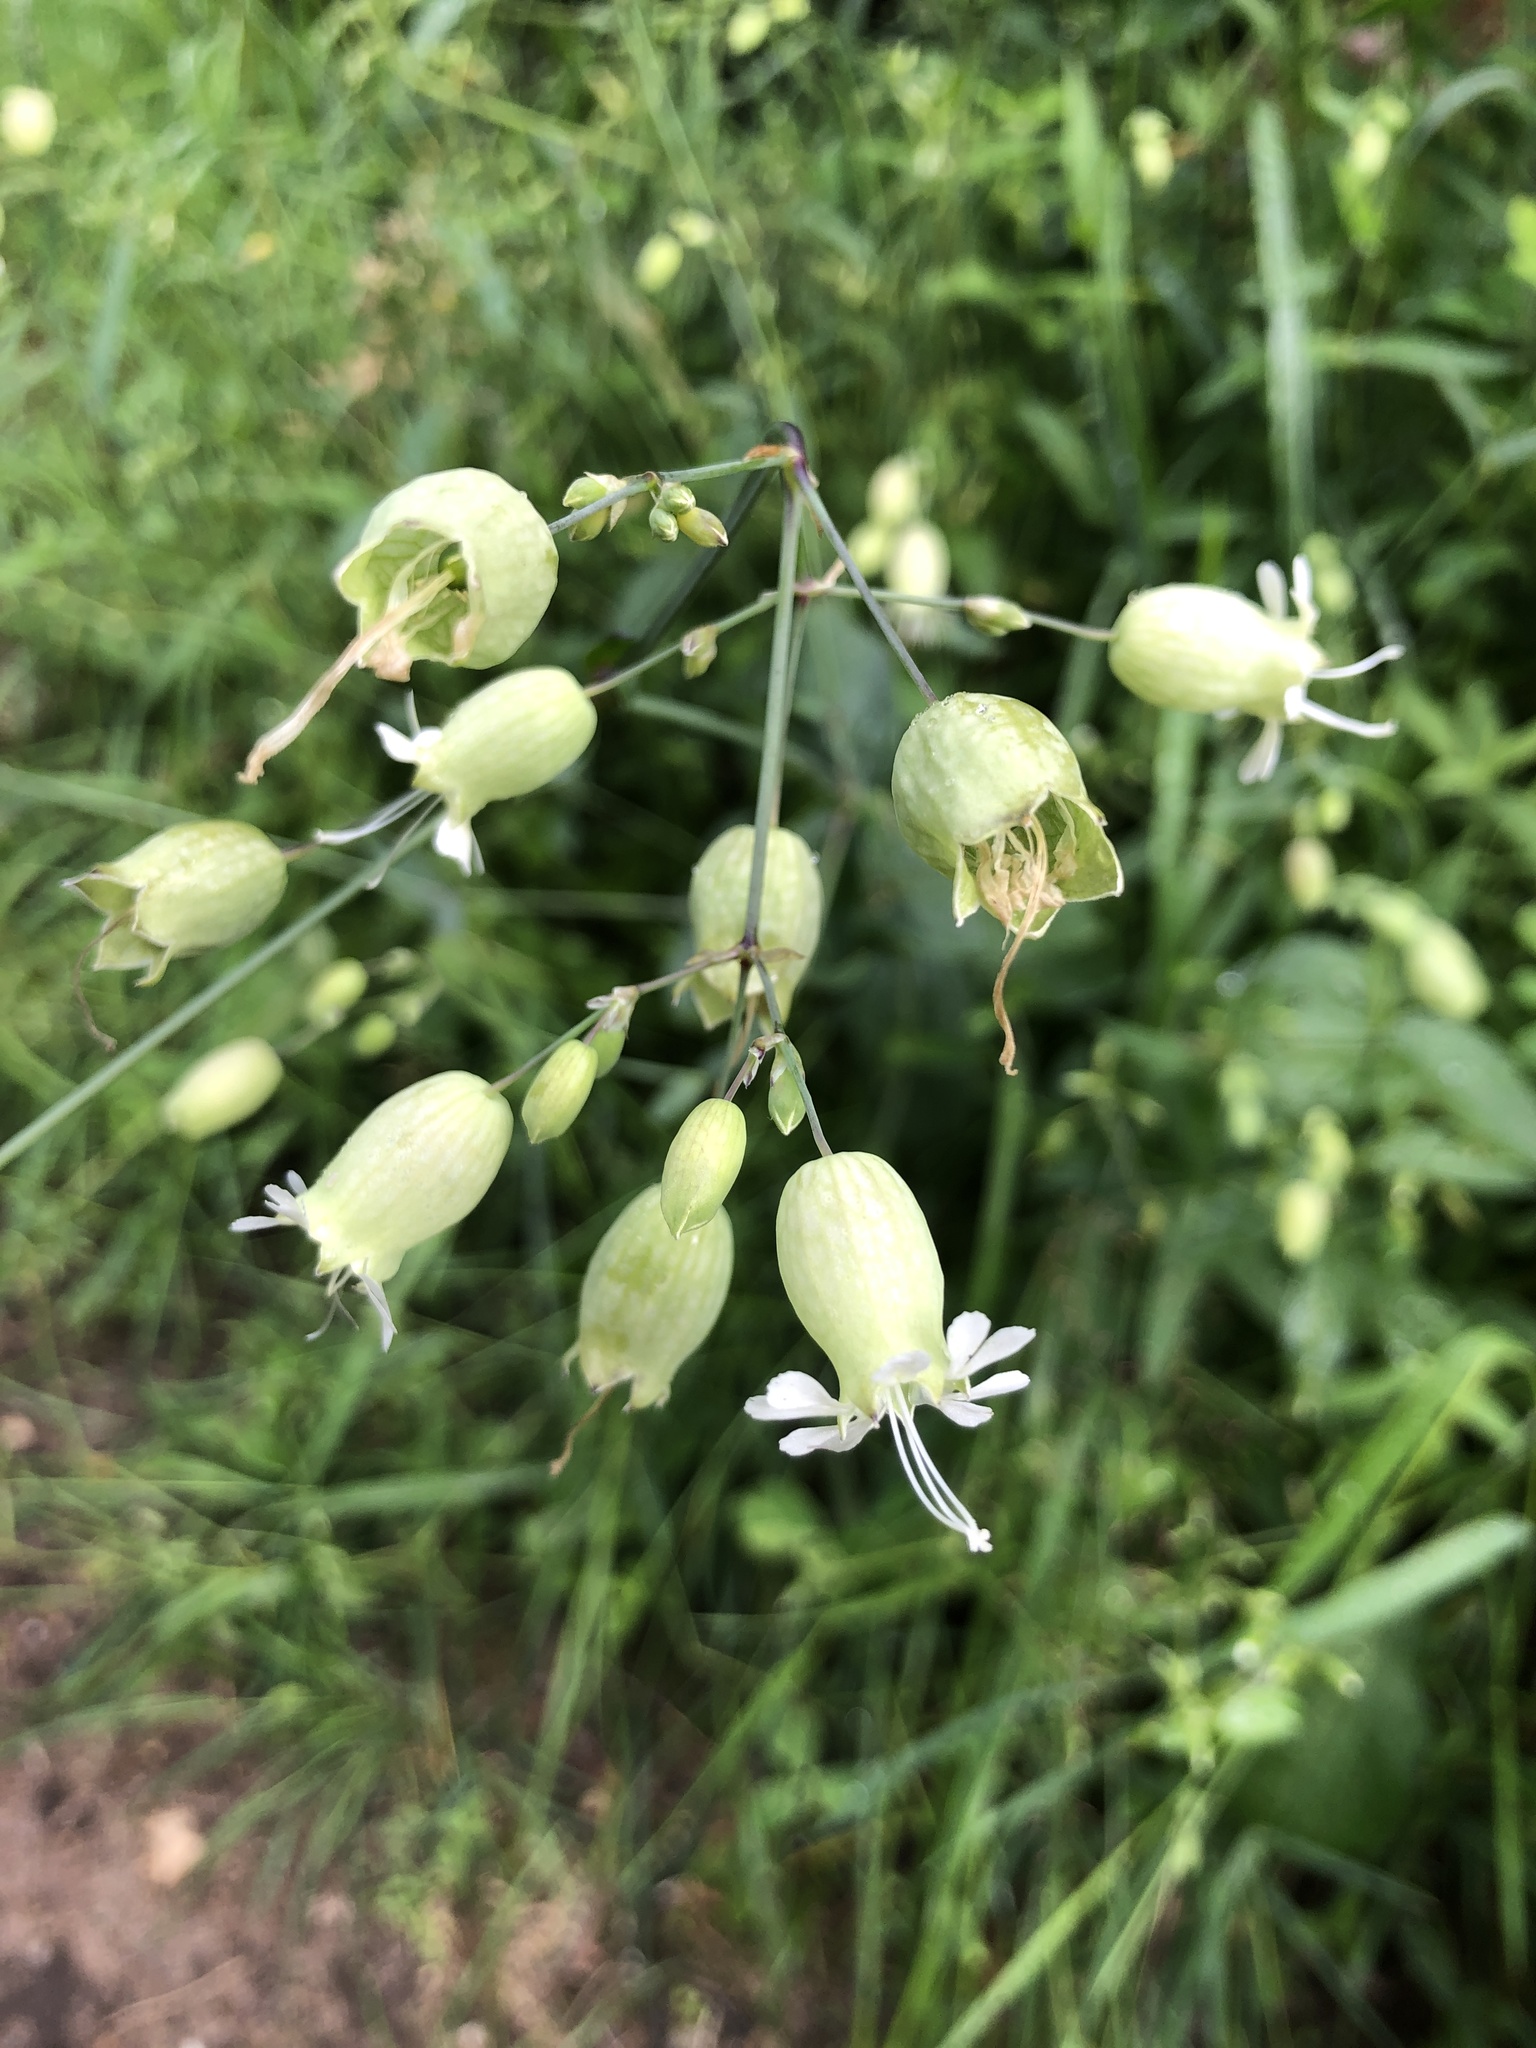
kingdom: Plantae
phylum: Tracheophyta
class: Magnoliopsida
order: Caryophyllales
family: Caryophyllaceae
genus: Silene
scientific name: Silene vulgaris
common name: Bladder campion
